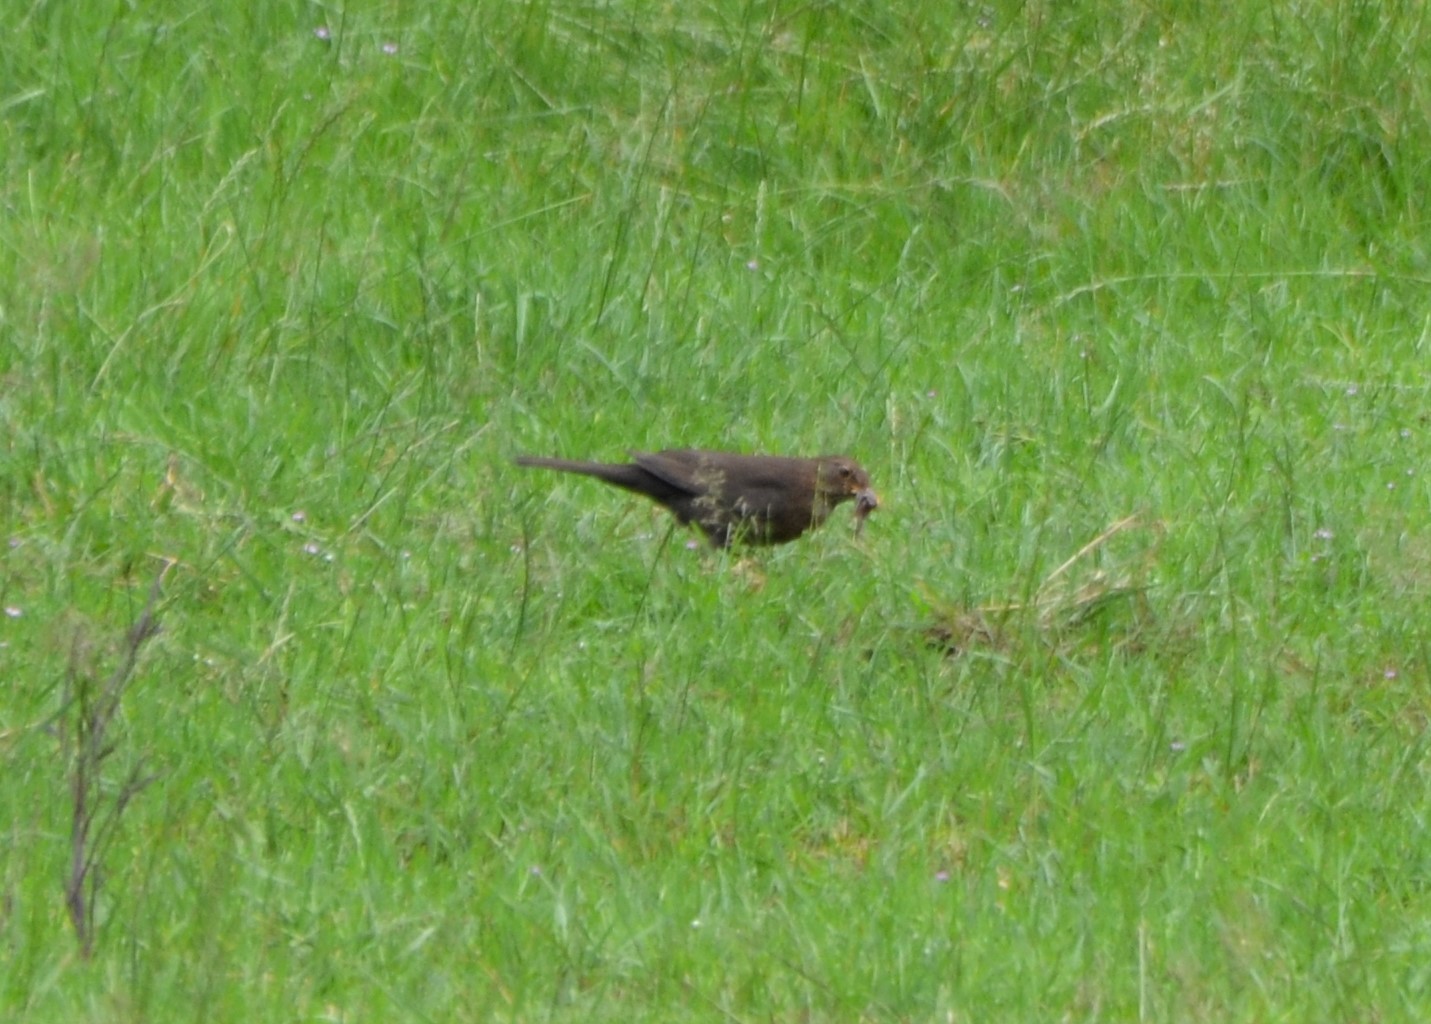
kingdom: Animalia
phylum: Chordata
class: Aves
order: Passeriformes
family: Turdidae
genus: Turdus
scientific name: Turdus merula
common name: Common blackbird
